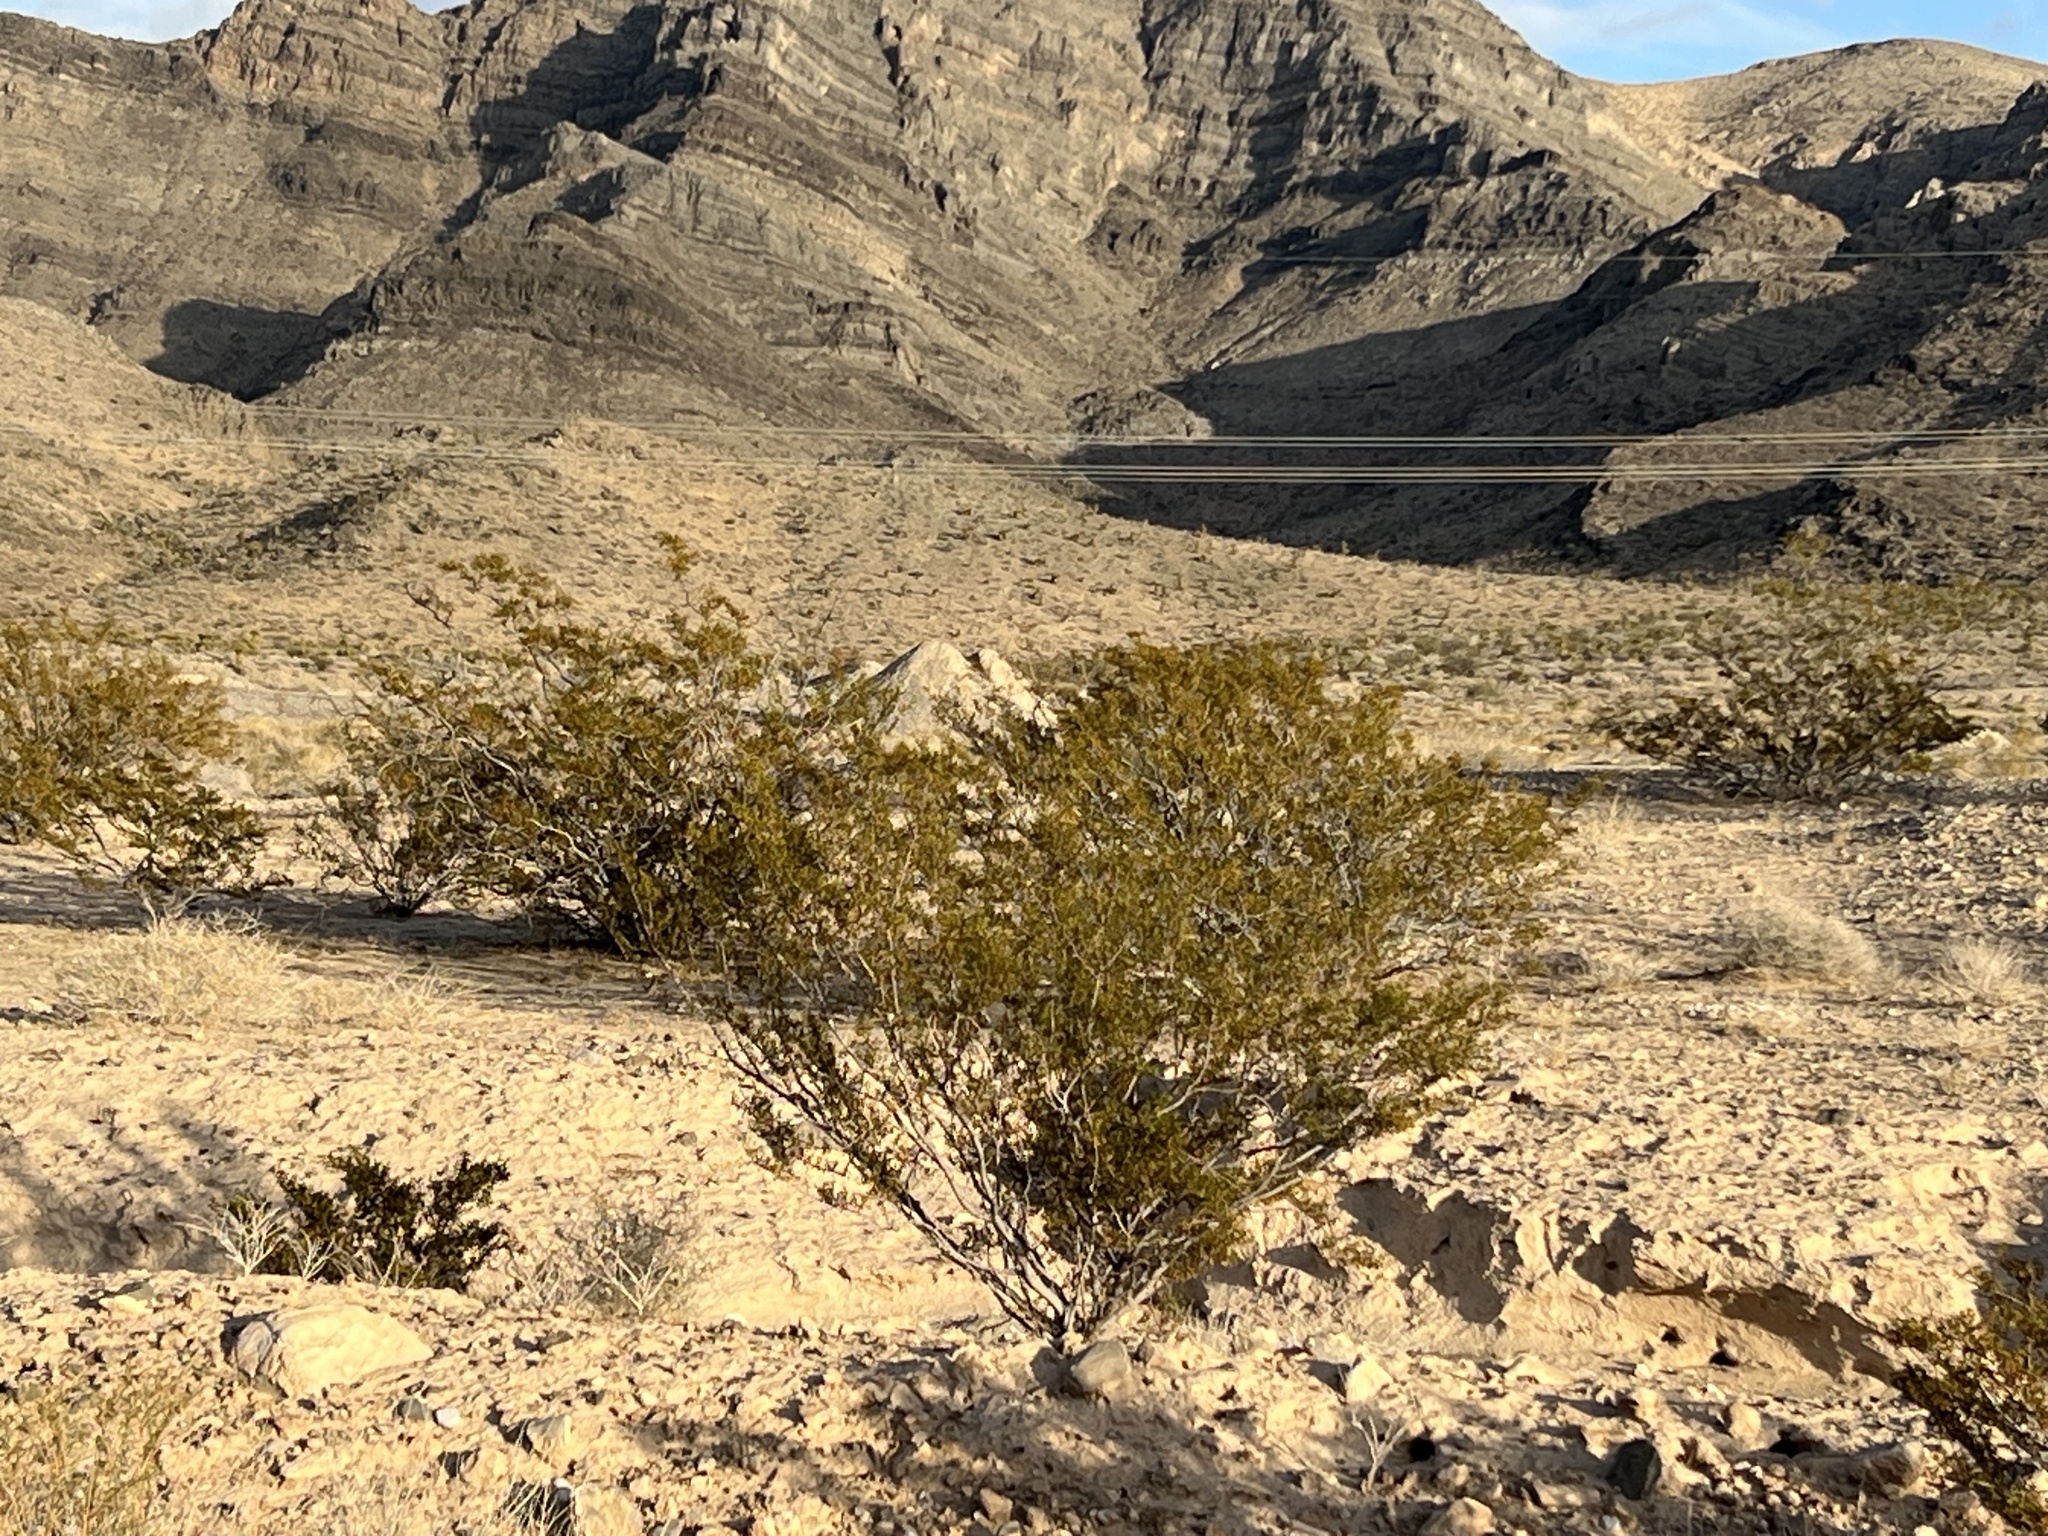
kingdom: Plantae
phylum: Tracheophyta
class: Magnoliopsida
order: Zygophyllales
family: Zygophyllaceae
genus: Larrea
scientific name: Larrea tridentata
